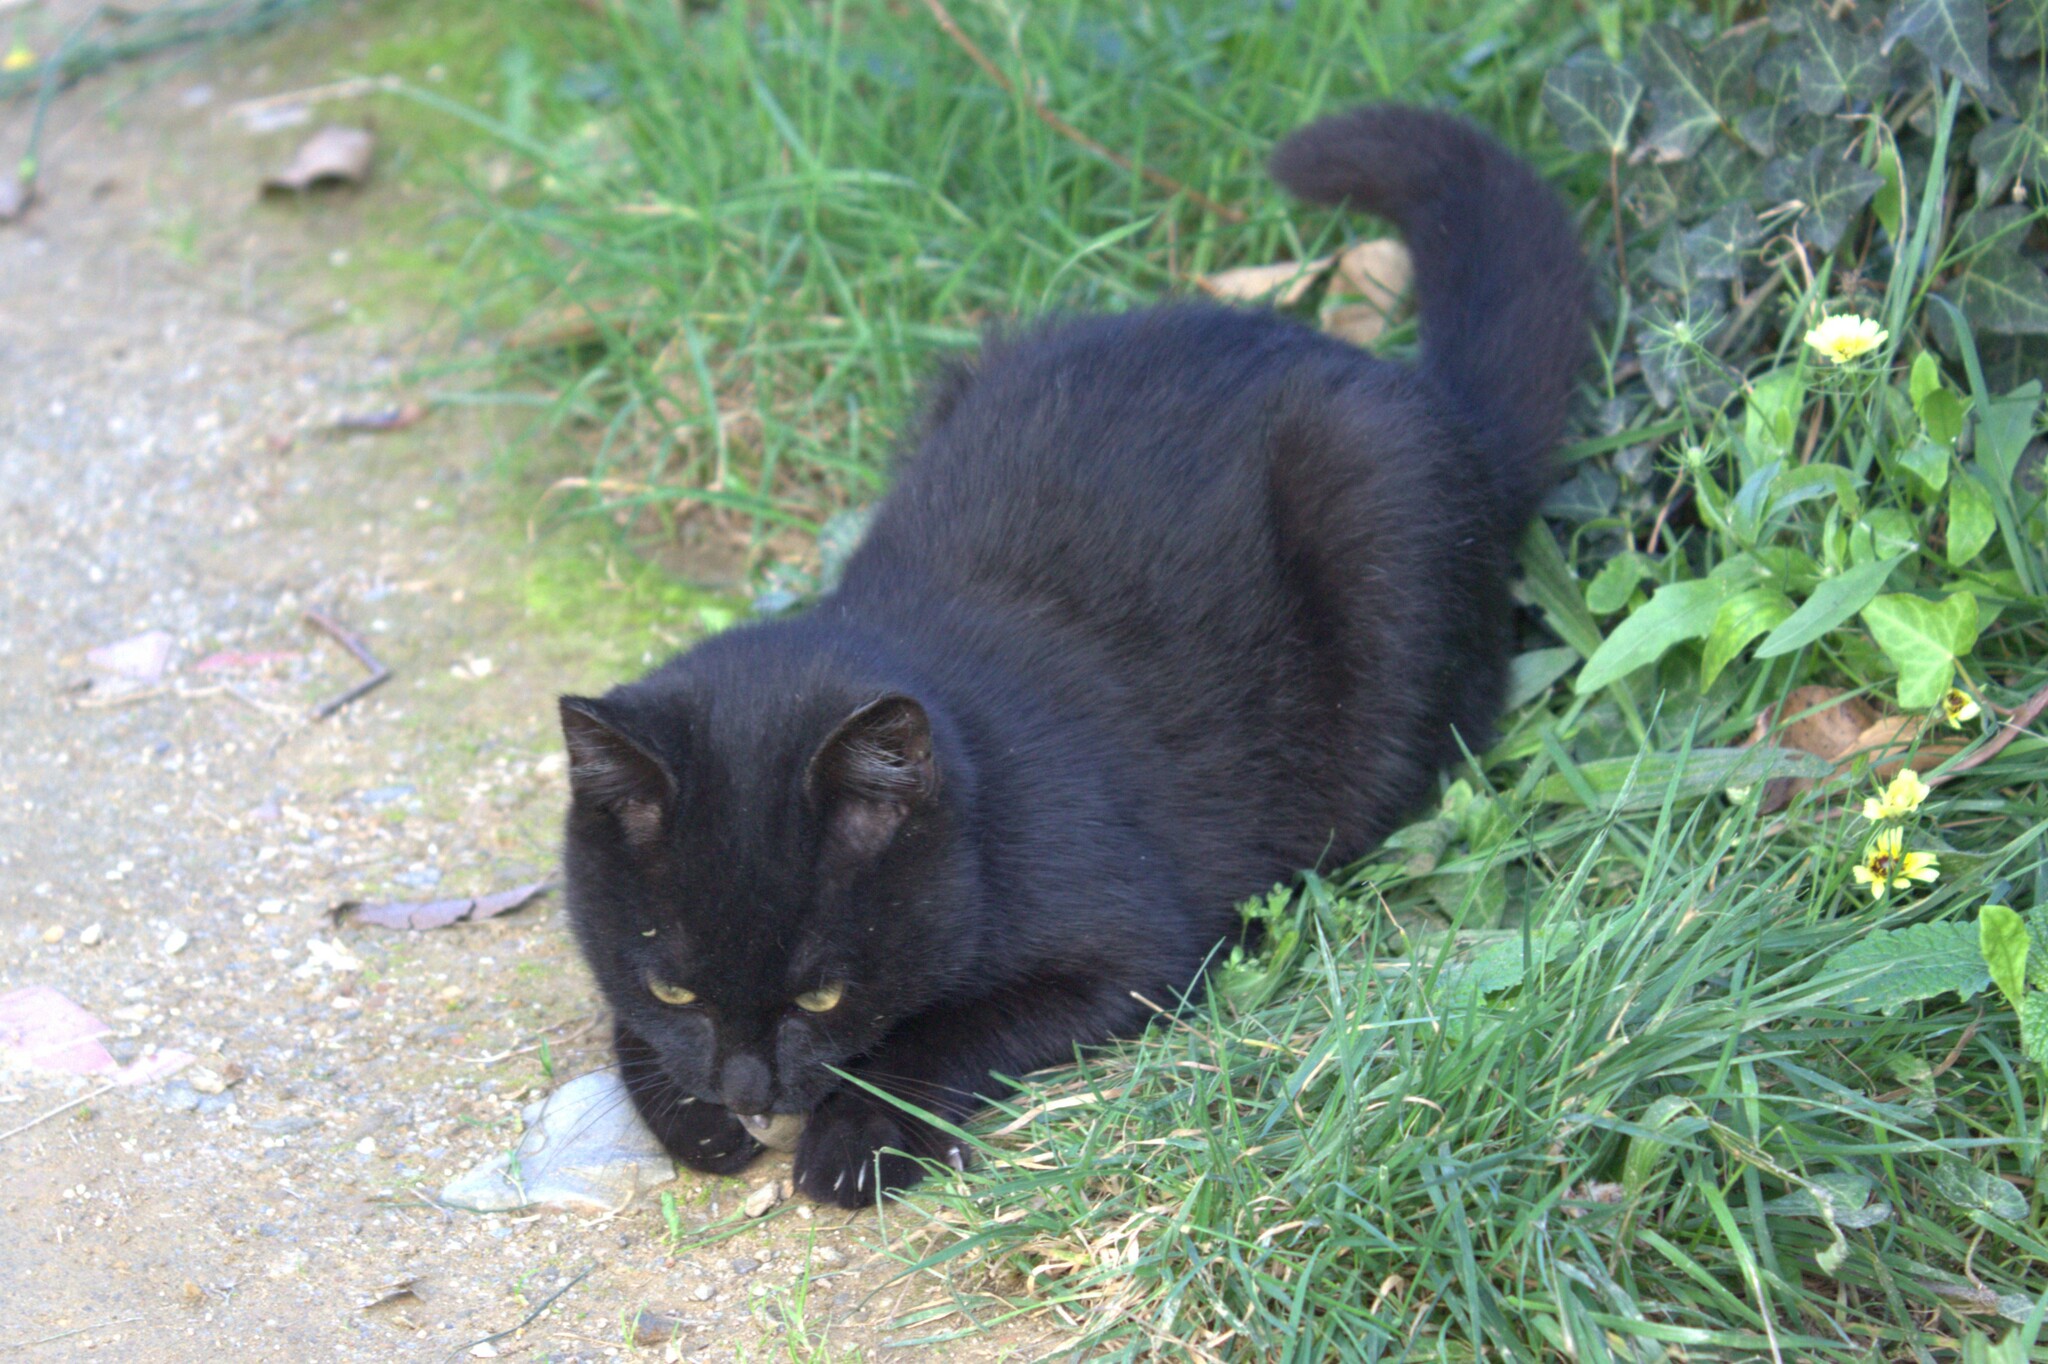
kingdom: Animalia
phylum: Chordata
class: Mammalia
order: Carnivora
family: Felidae
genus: Felis
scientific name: Felis catus
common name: Domestic cat
